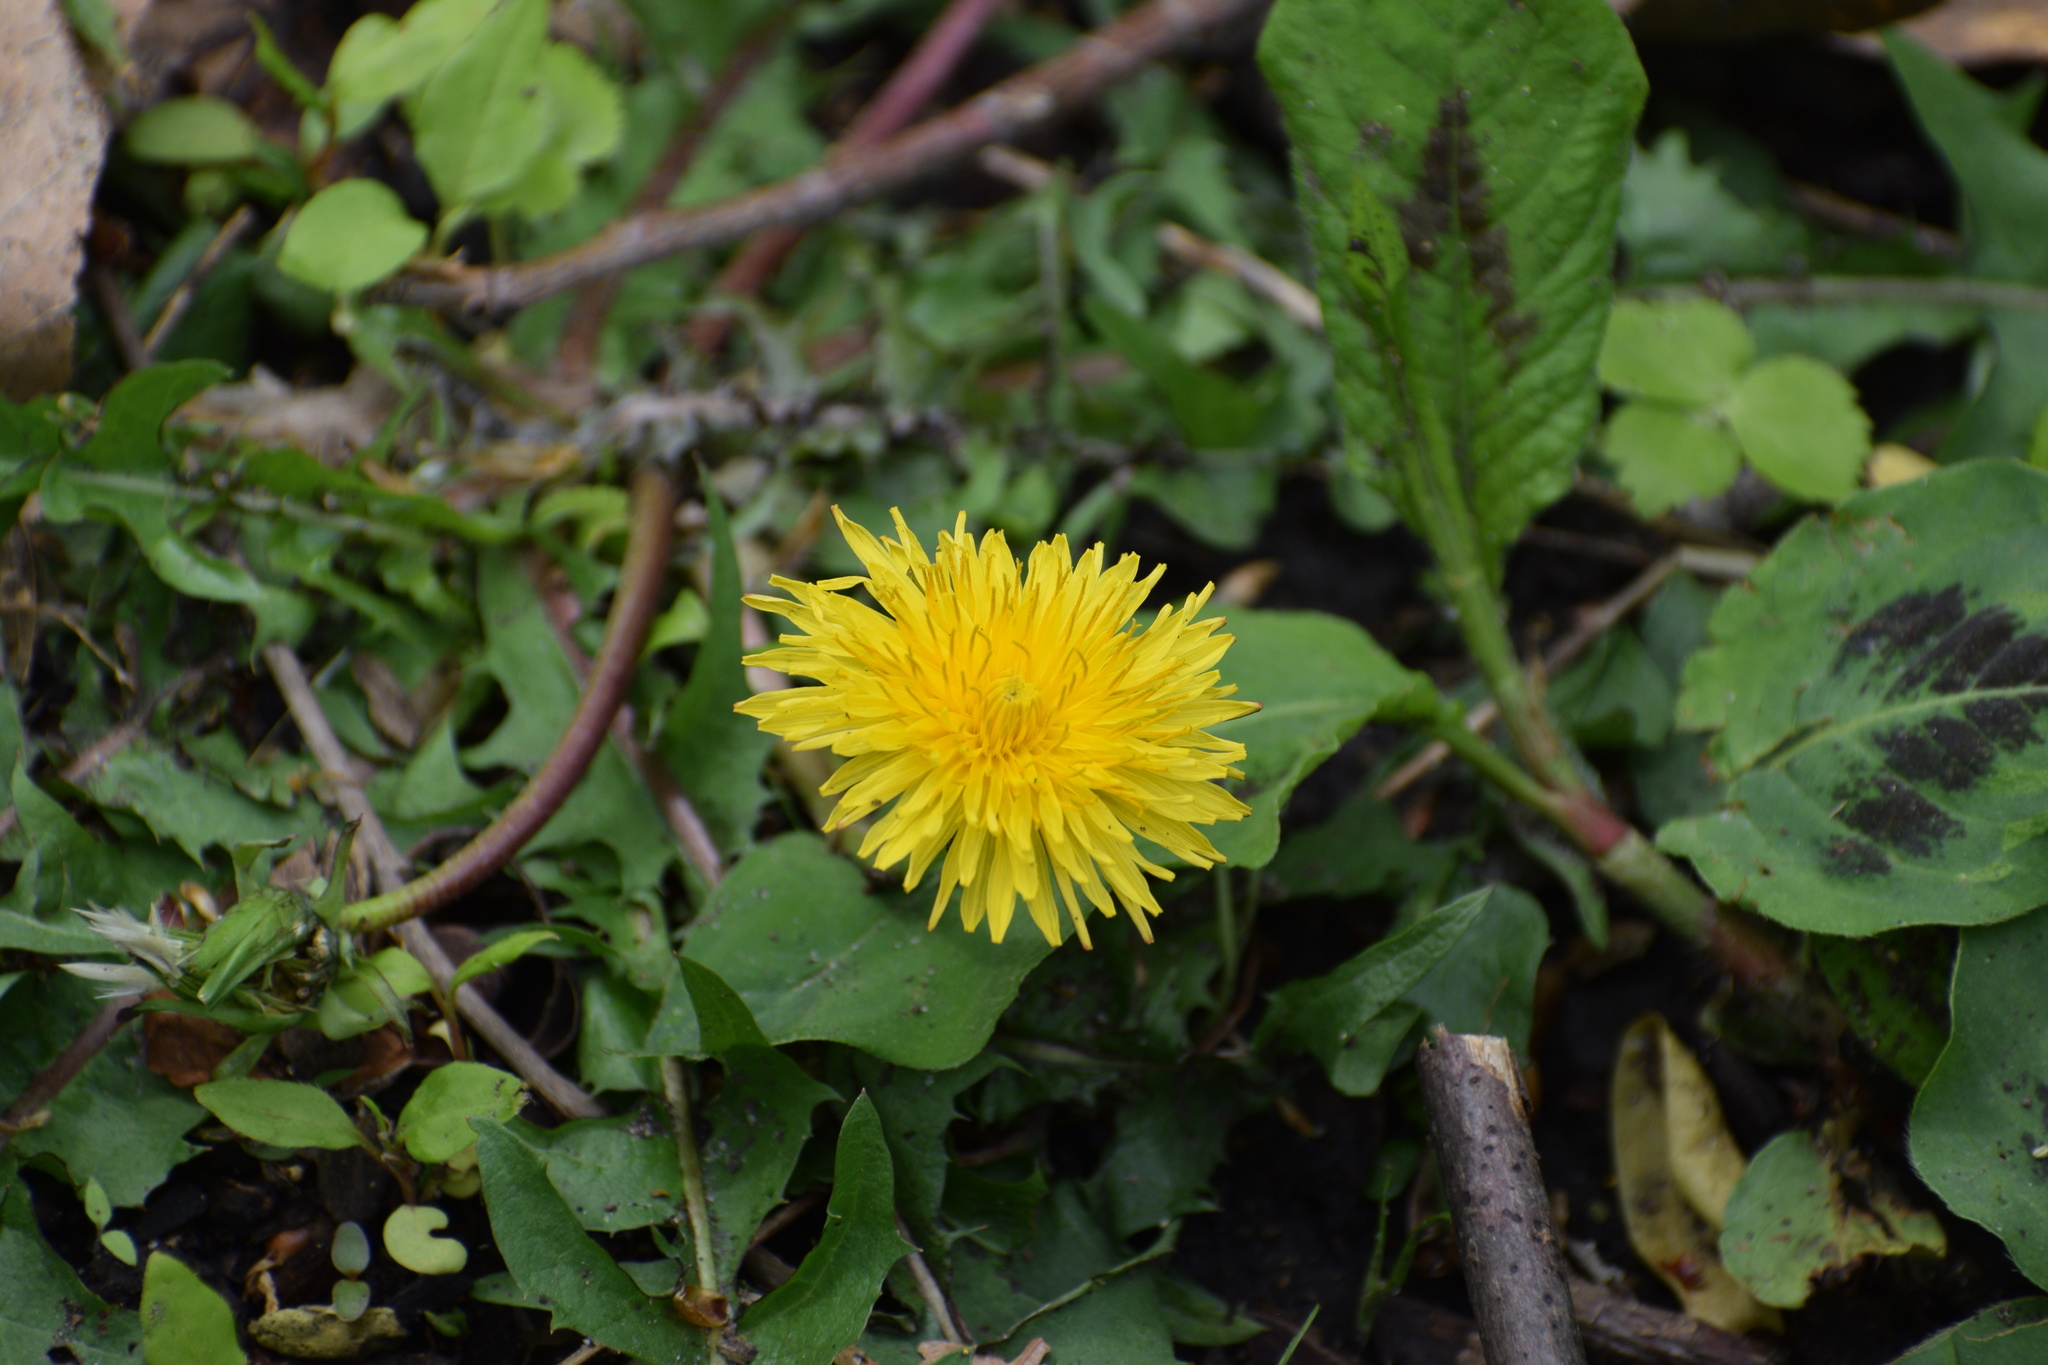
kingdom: Plantae
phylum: Tracheophyta
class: Magnoliopsida
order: Asterales
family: Asteraceae
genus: Taraxacum
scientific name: Taraxacum officinale
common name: Common dandelion
